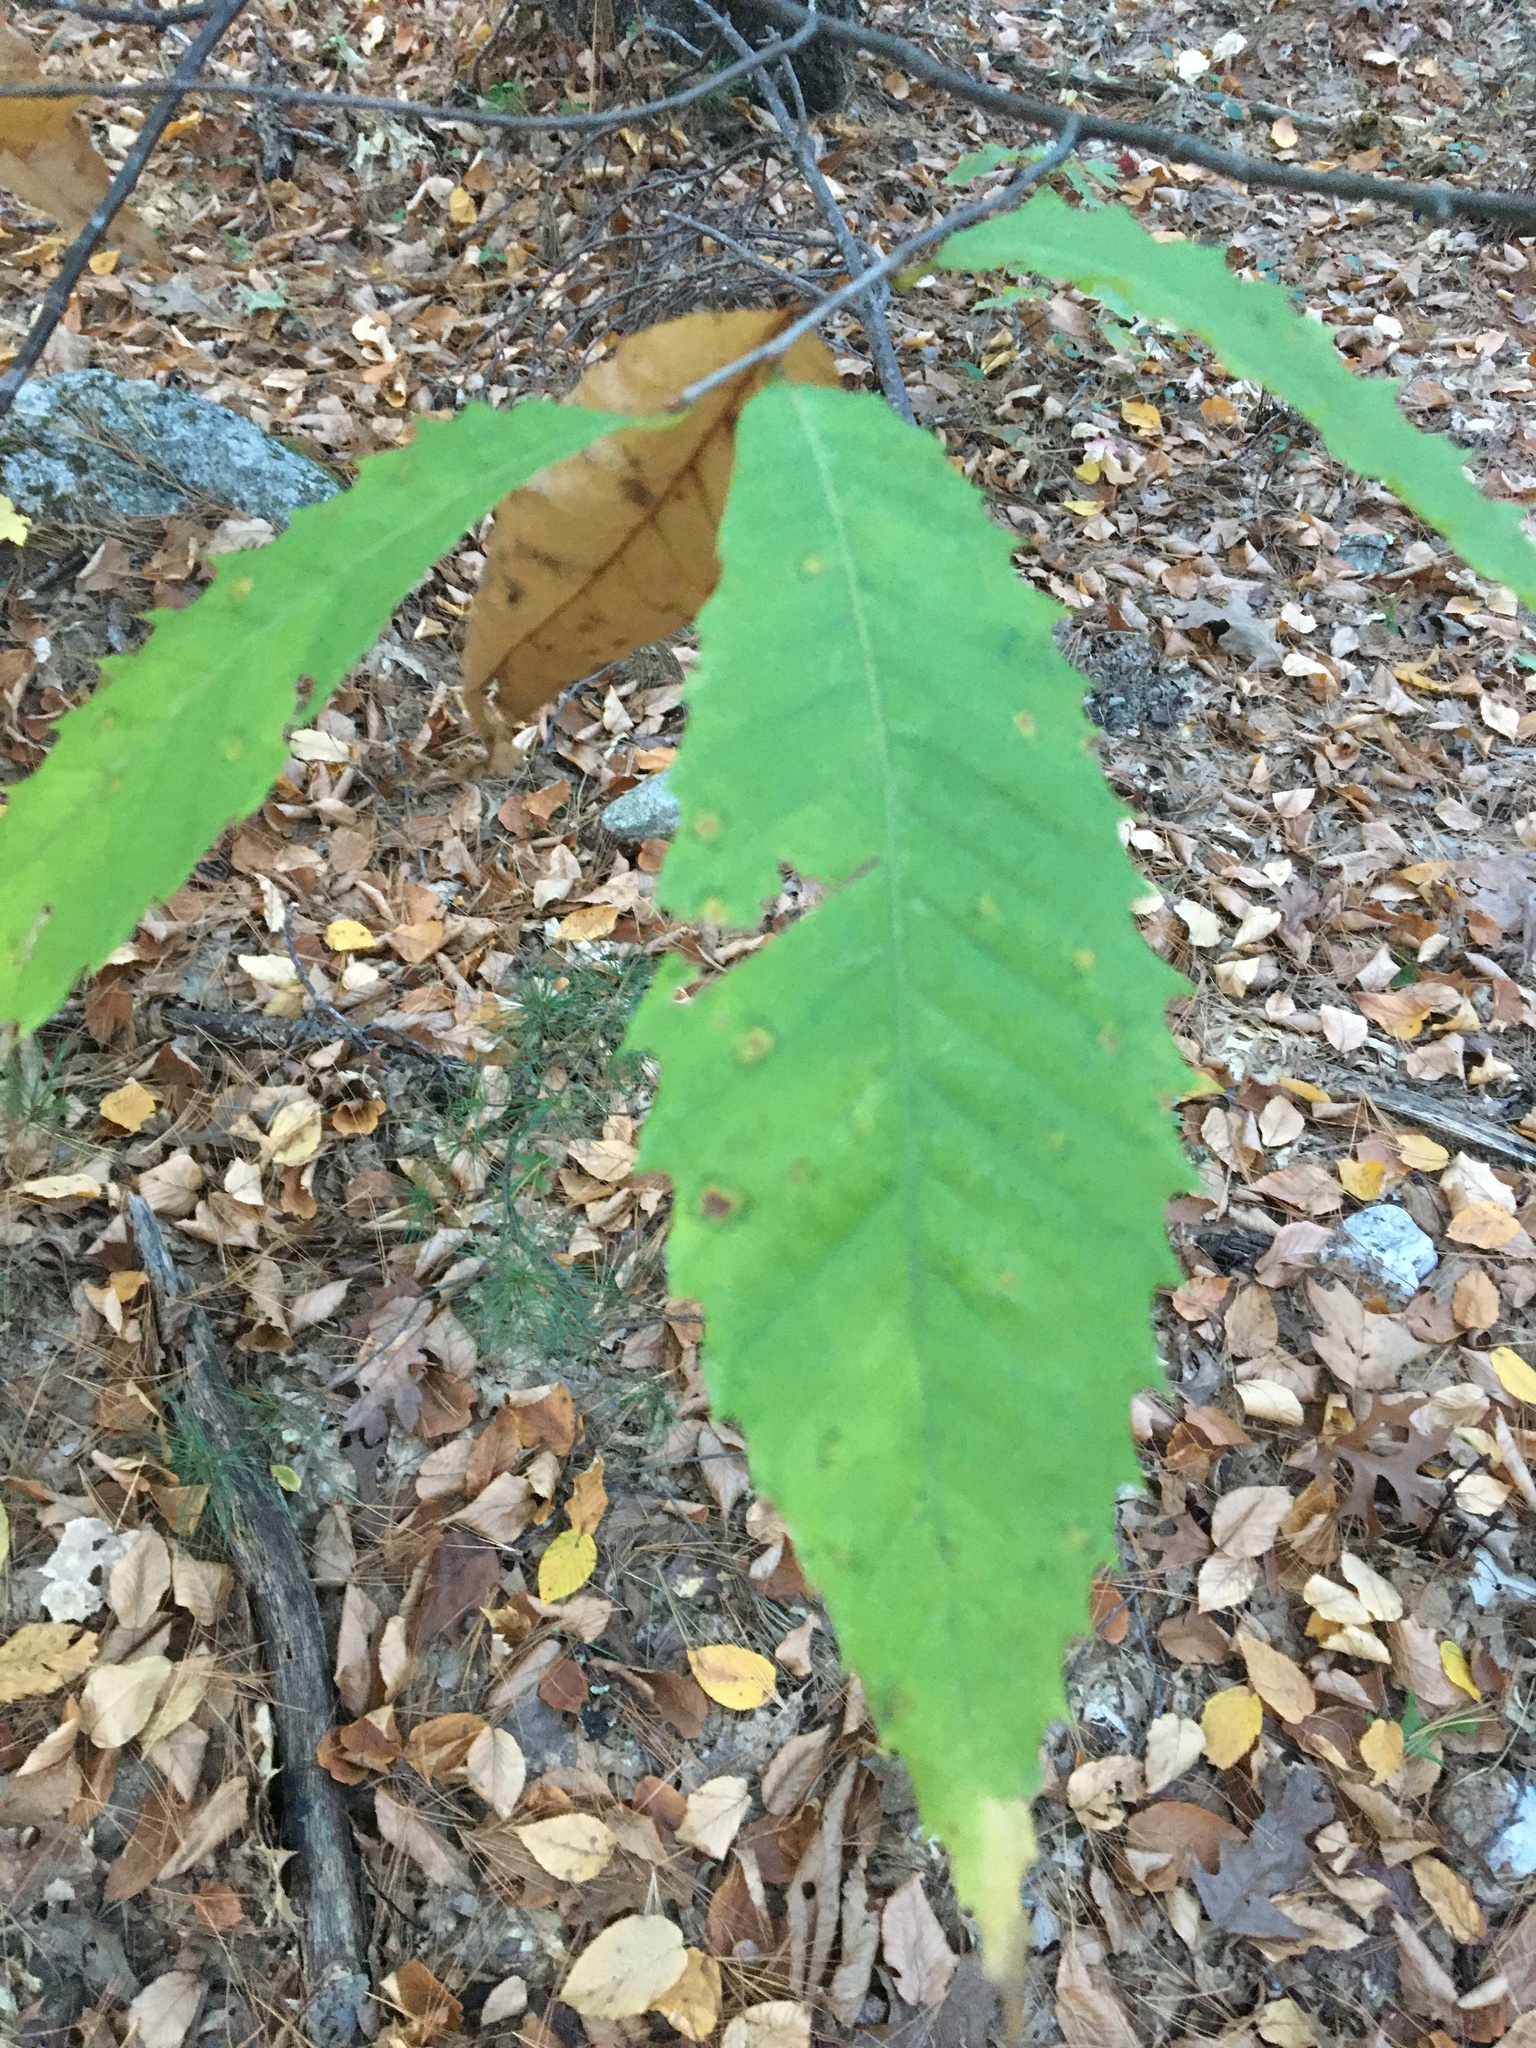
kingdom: Plantae
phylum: Tracheophyta
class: Magnoliopsida
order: Fagales
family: Fagaceae
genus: Castanea
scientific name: Castanea dentata
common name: American chestnut
